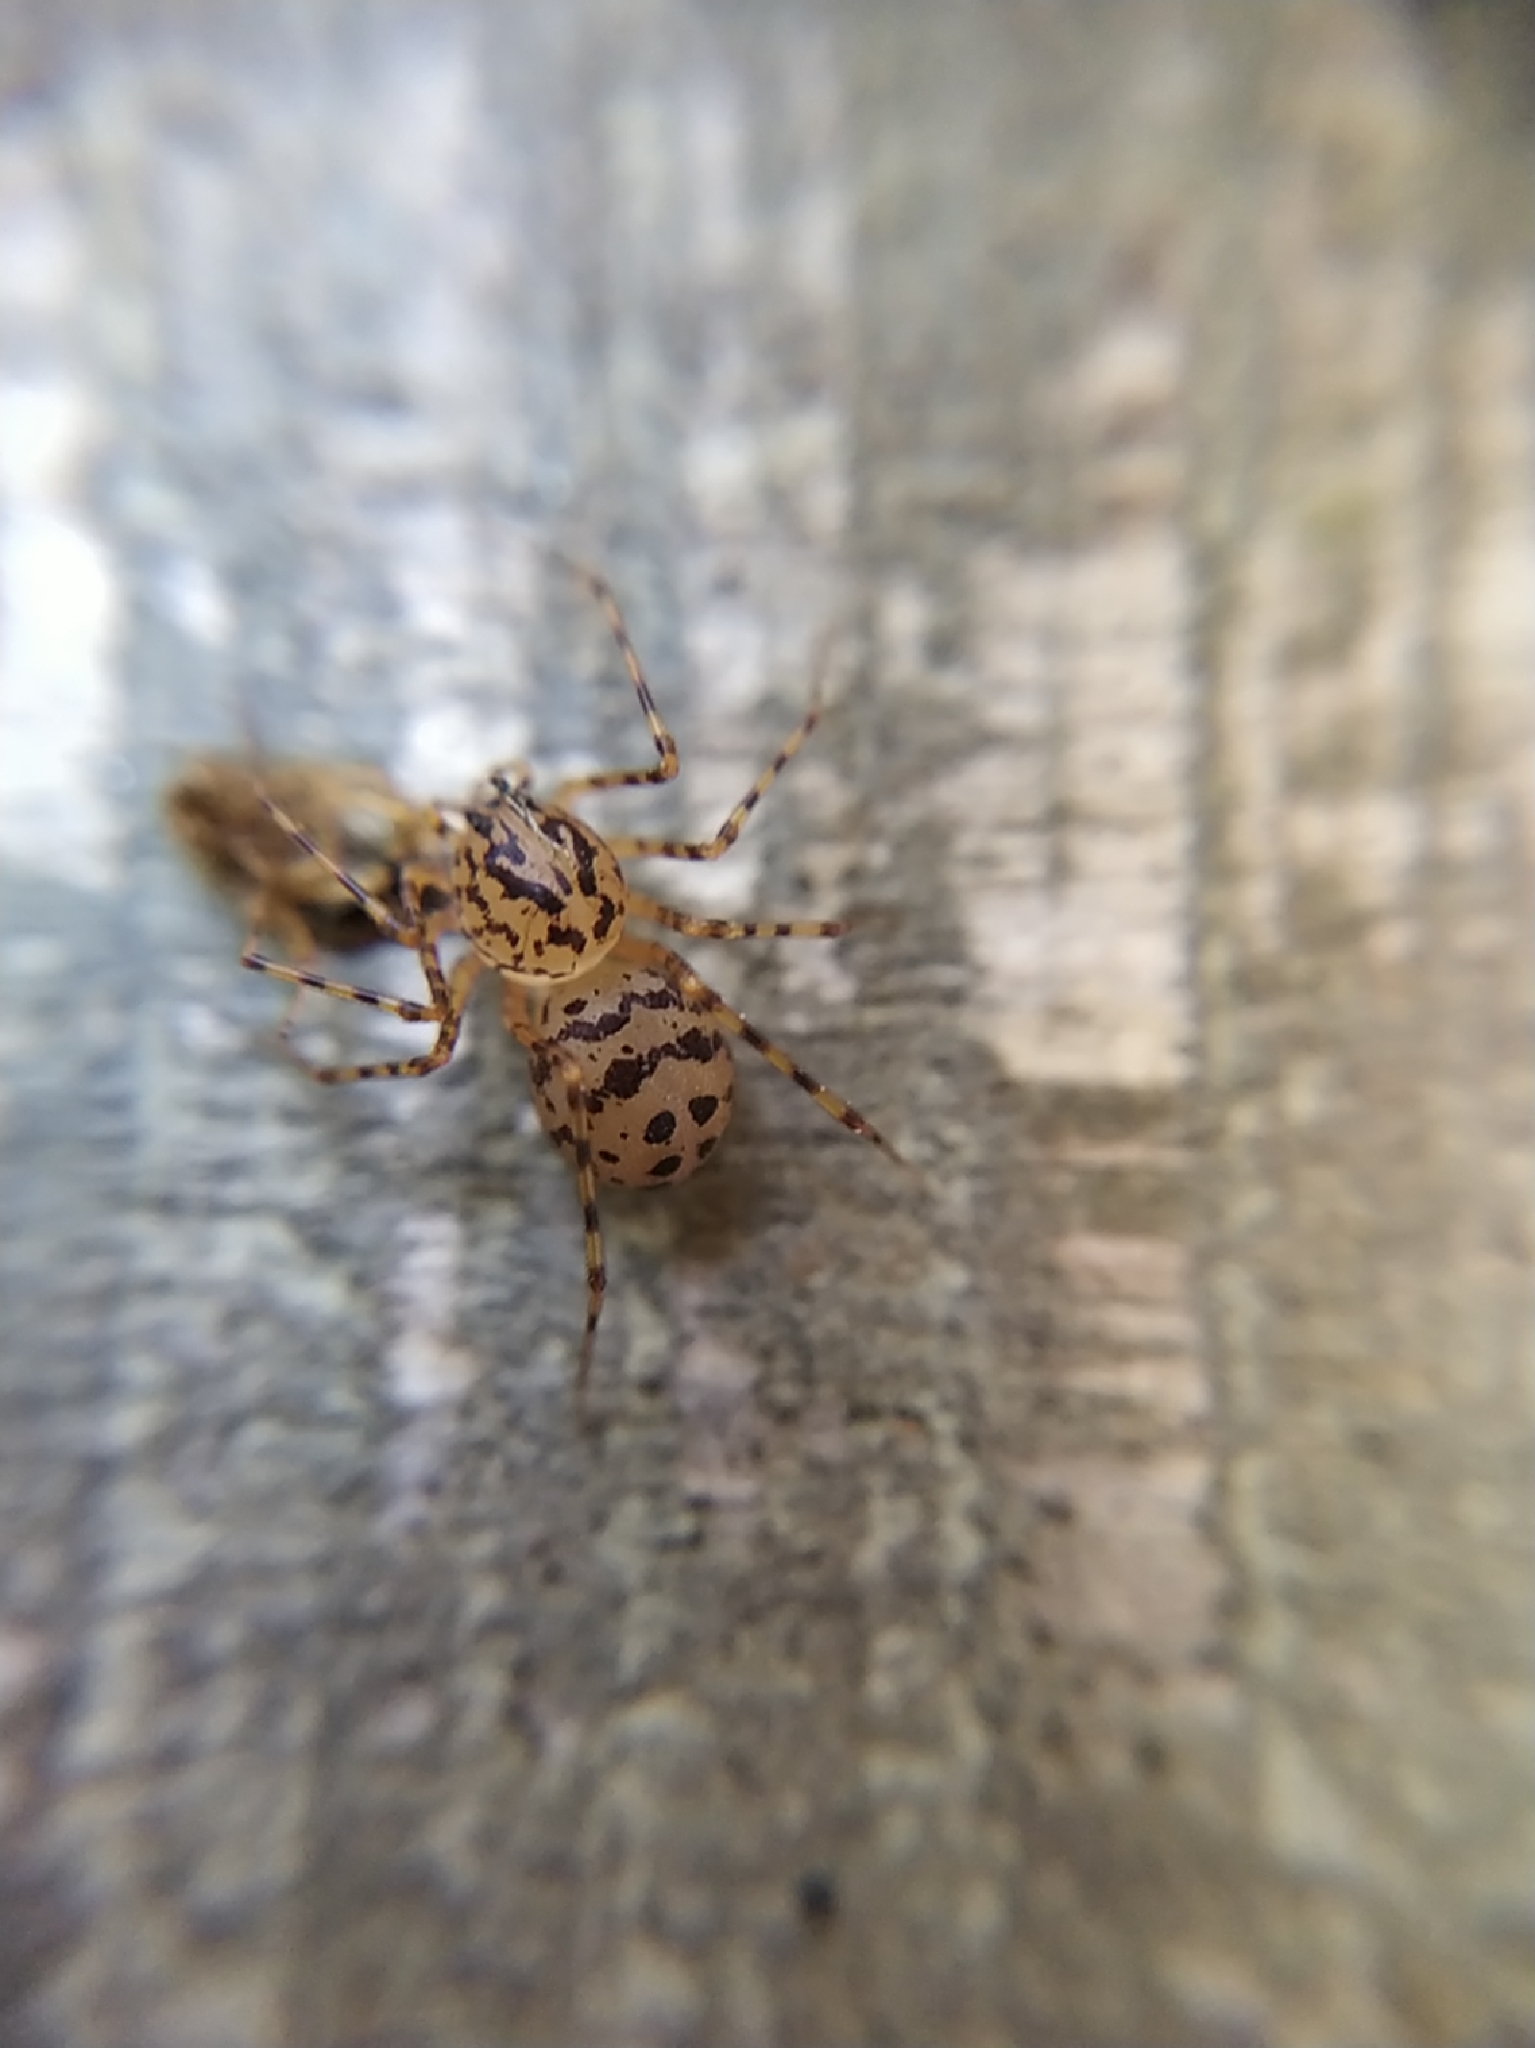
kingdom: Animalia
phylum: Arthropoda
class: Arachnida
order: Araneae
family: Scytodidae
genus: Scytodes
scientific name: Scytodes thoracica
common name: Spitting spider
